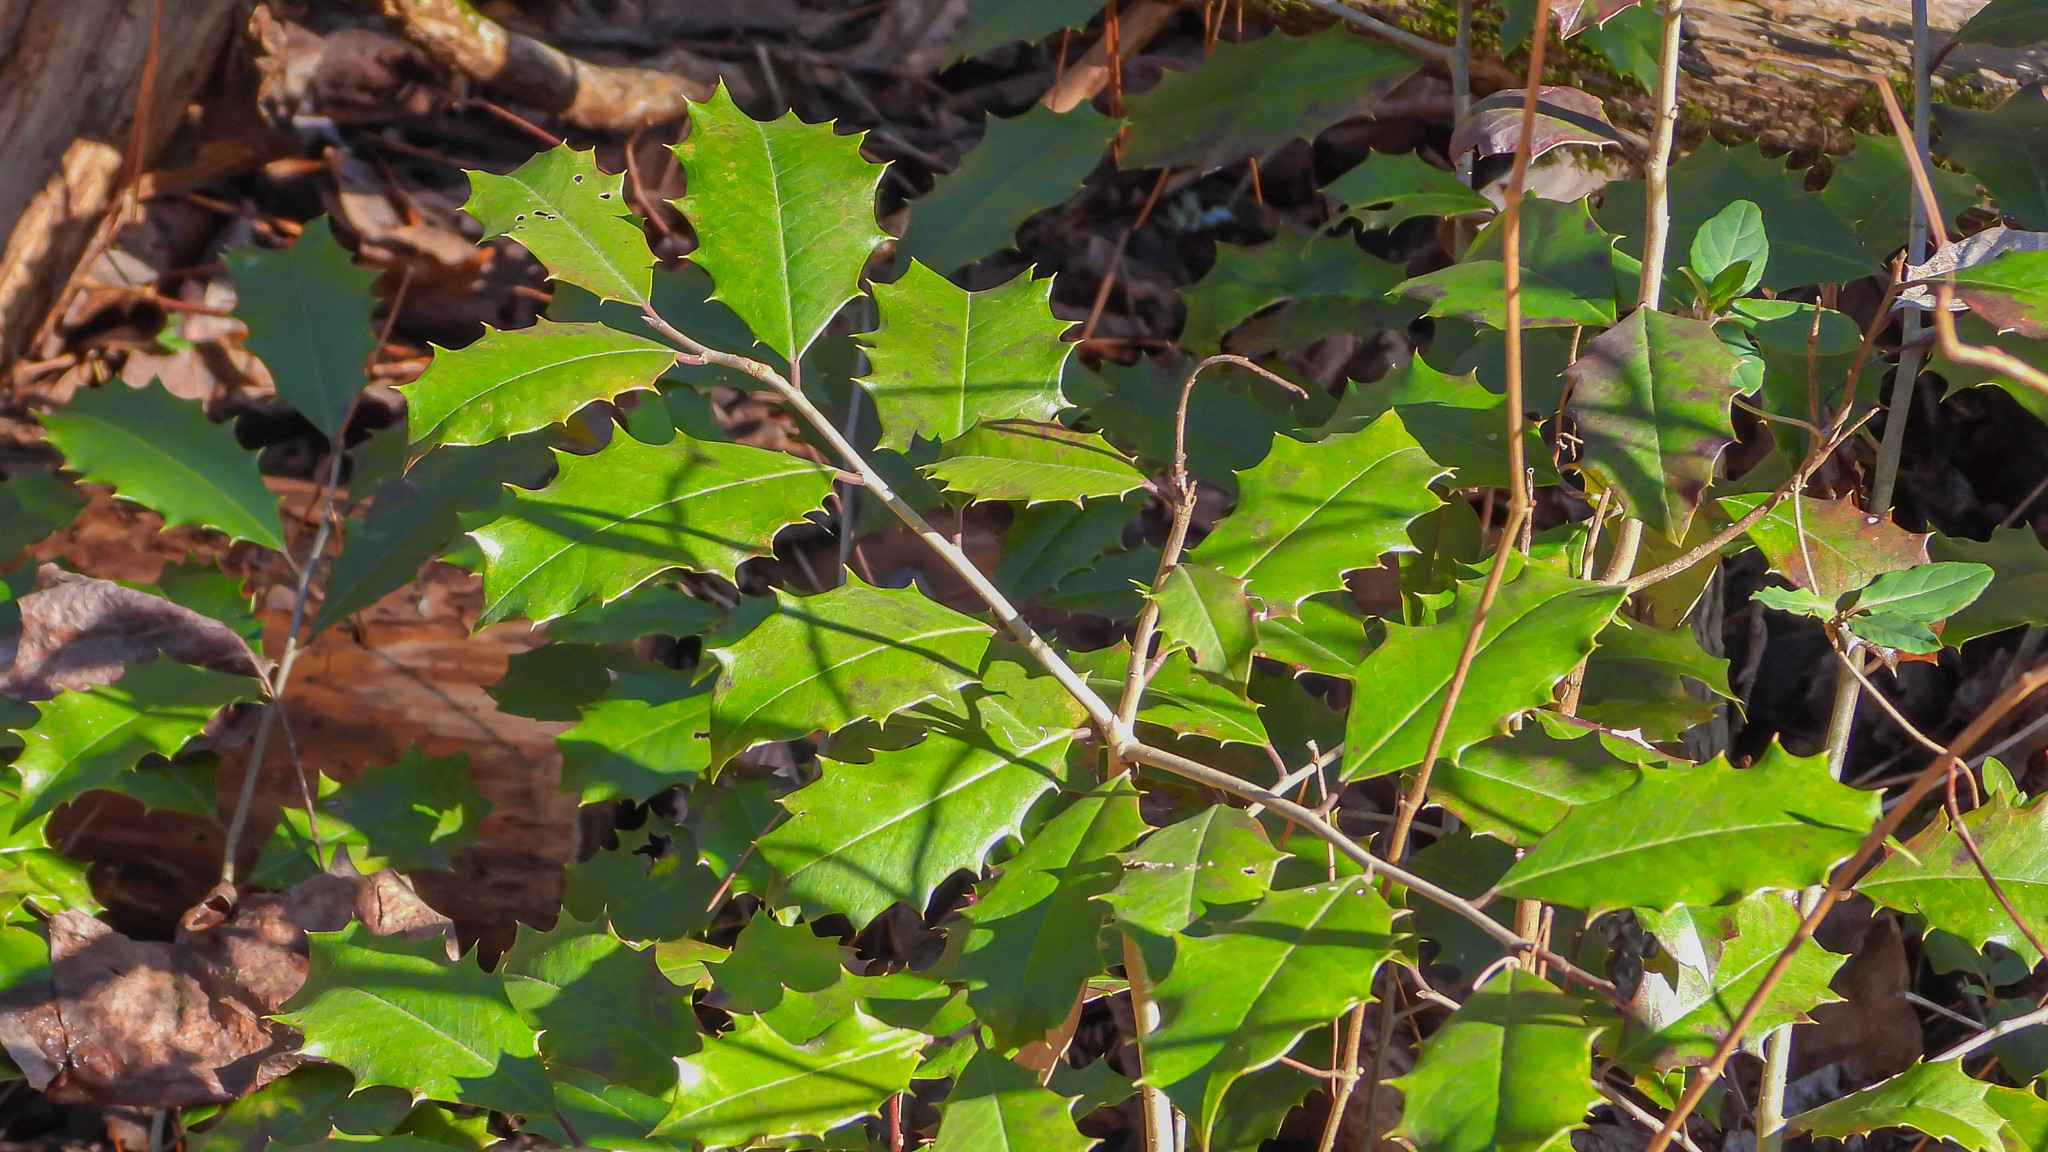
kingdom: Plantae
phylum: Tracheophyta
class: Magnoliopsida
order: Aquifoliales
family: Aquifoliaceae
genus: Ilex
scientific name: Ilex opaca
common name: American holly
